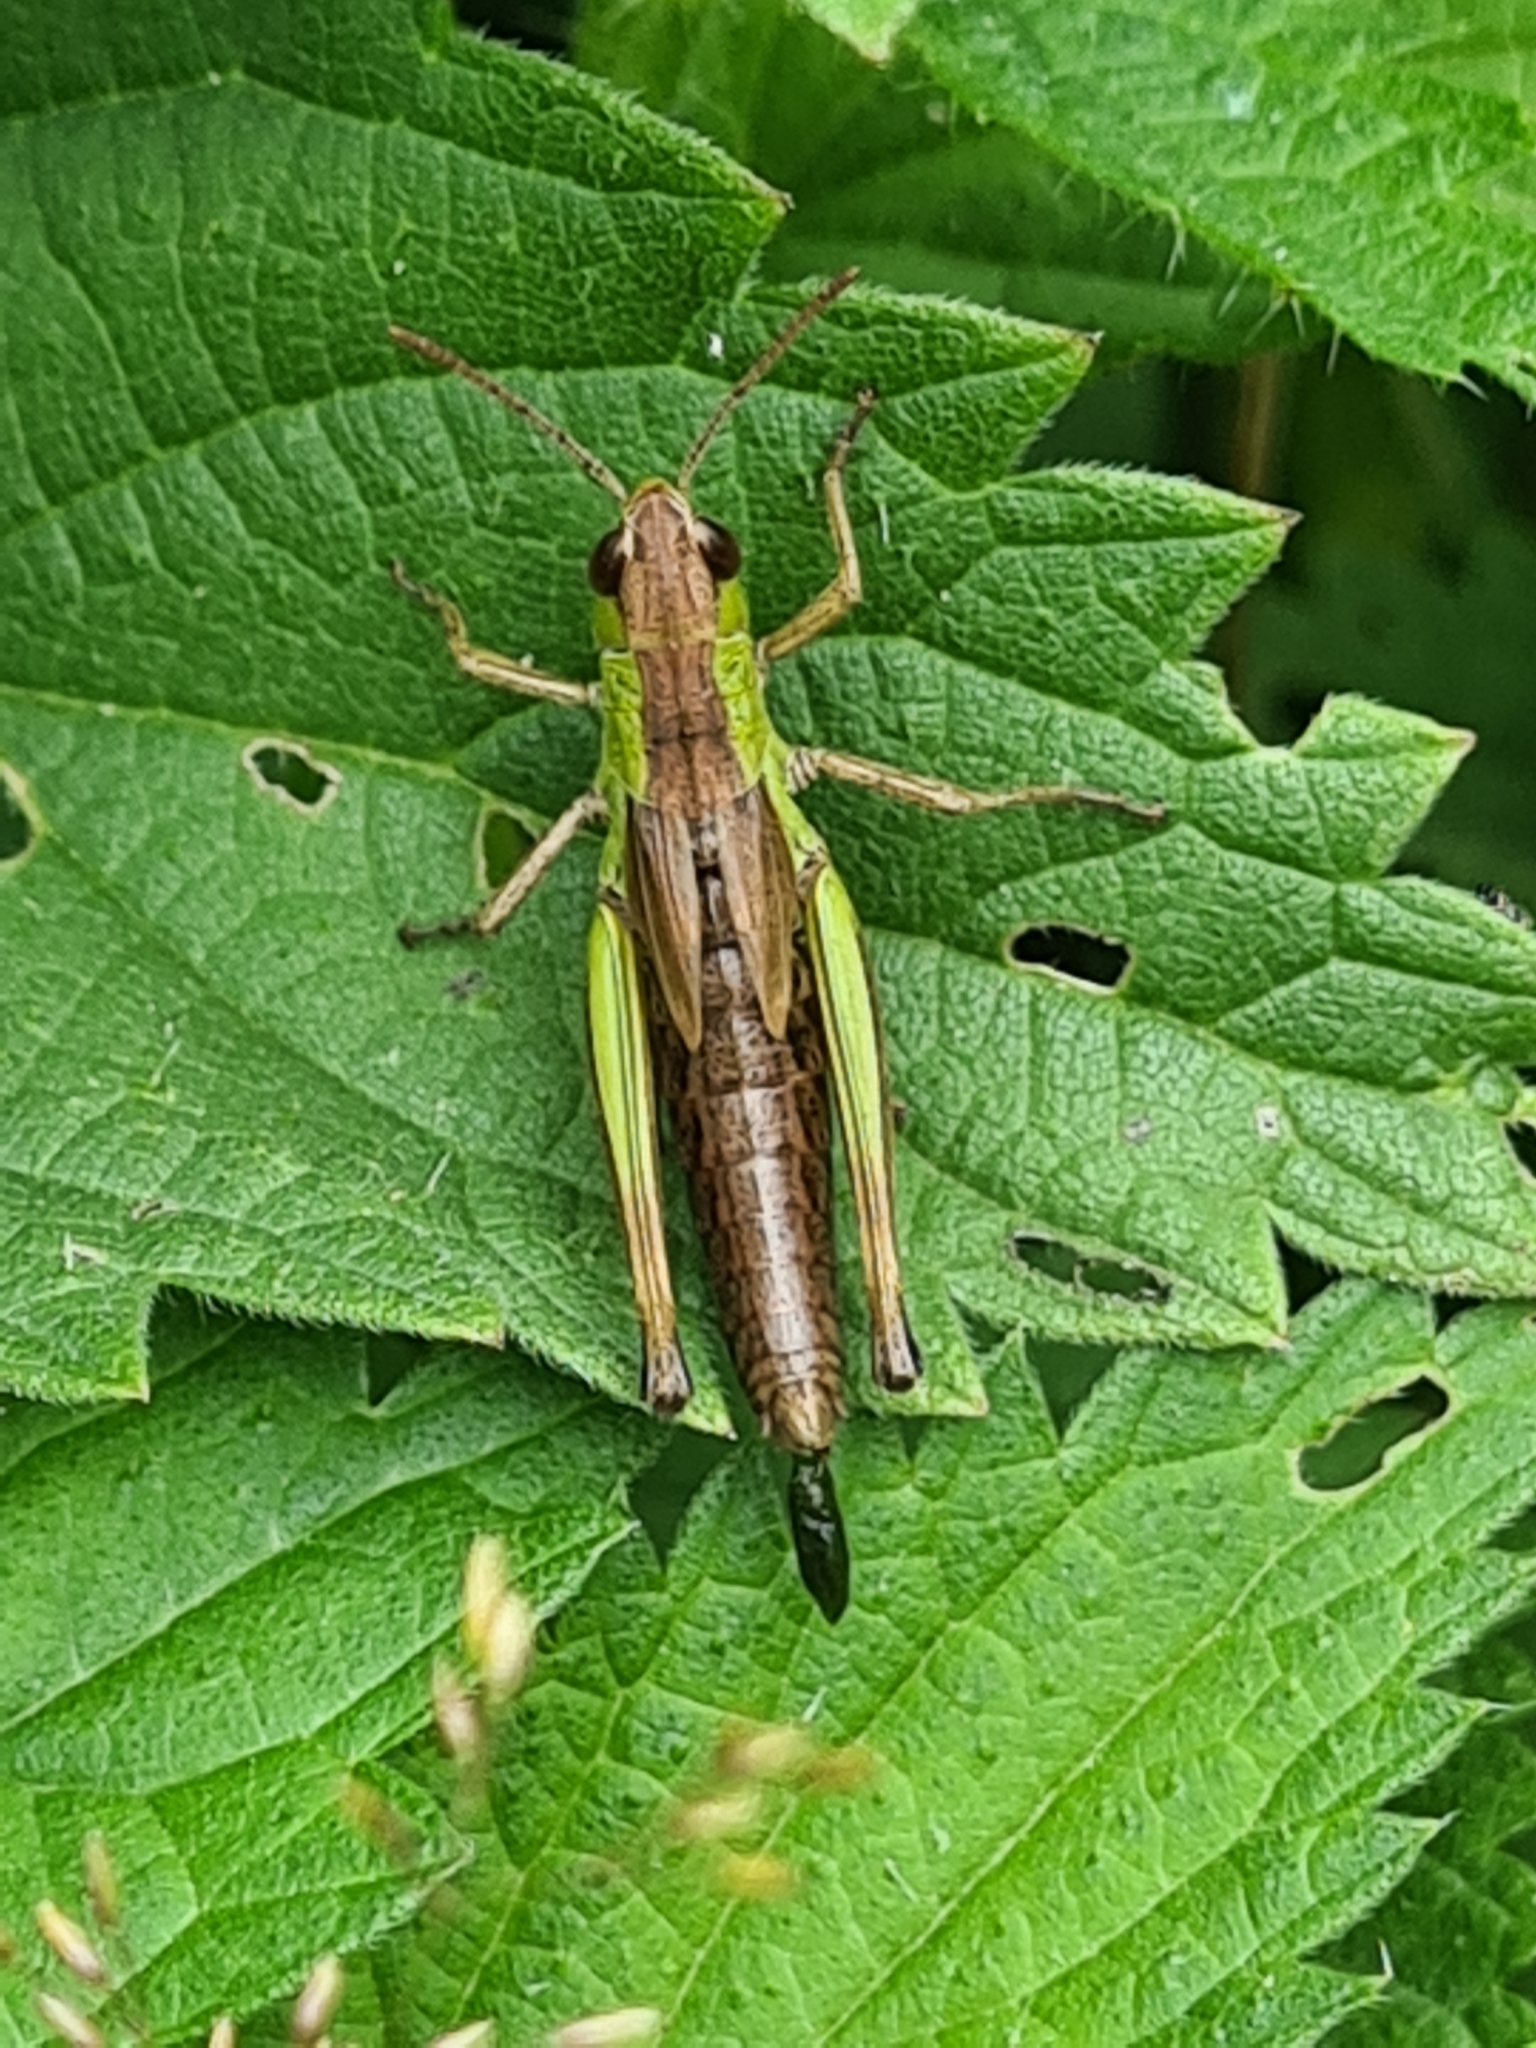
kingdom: Animalia
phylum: Arthropoda
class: Insecta
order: Orthoptera
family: Acrididae
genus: Pseudochorthippus
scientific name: Pseudochorthippus parallelus
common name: Meadow grasshopper
